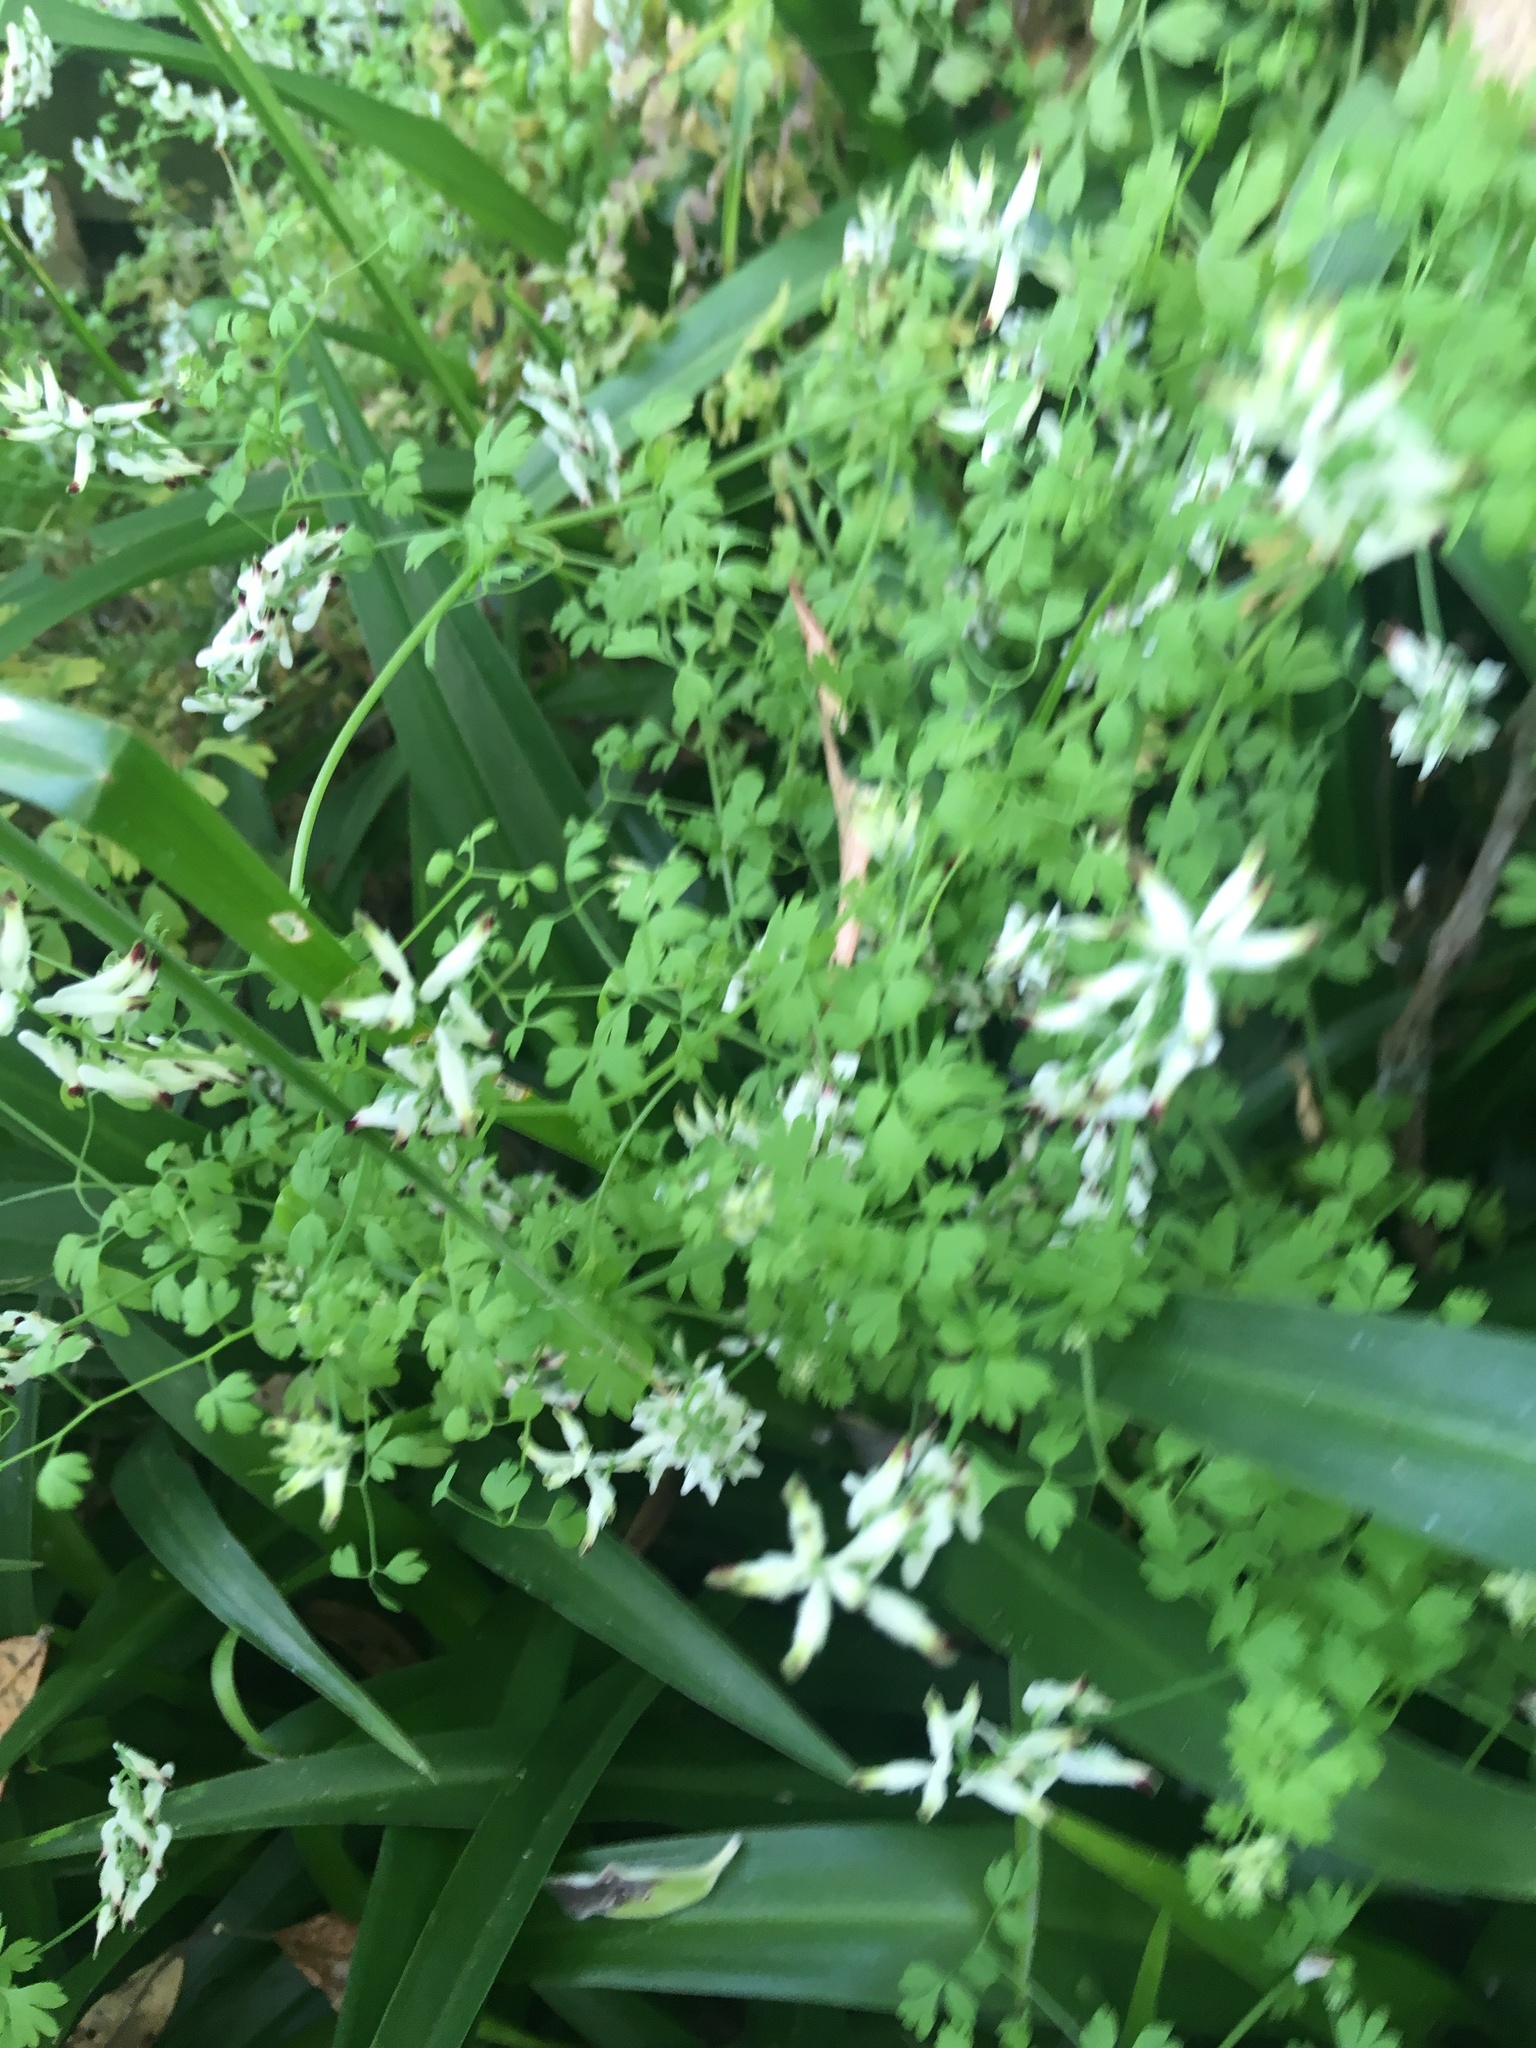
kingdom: Plantae
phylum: Tracheophyta
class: Magnoliopsida
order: Ranunculales
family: Papaveraceae
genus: Fumaria
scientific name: Fumaria capreolata
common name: White ramping-fumitory
